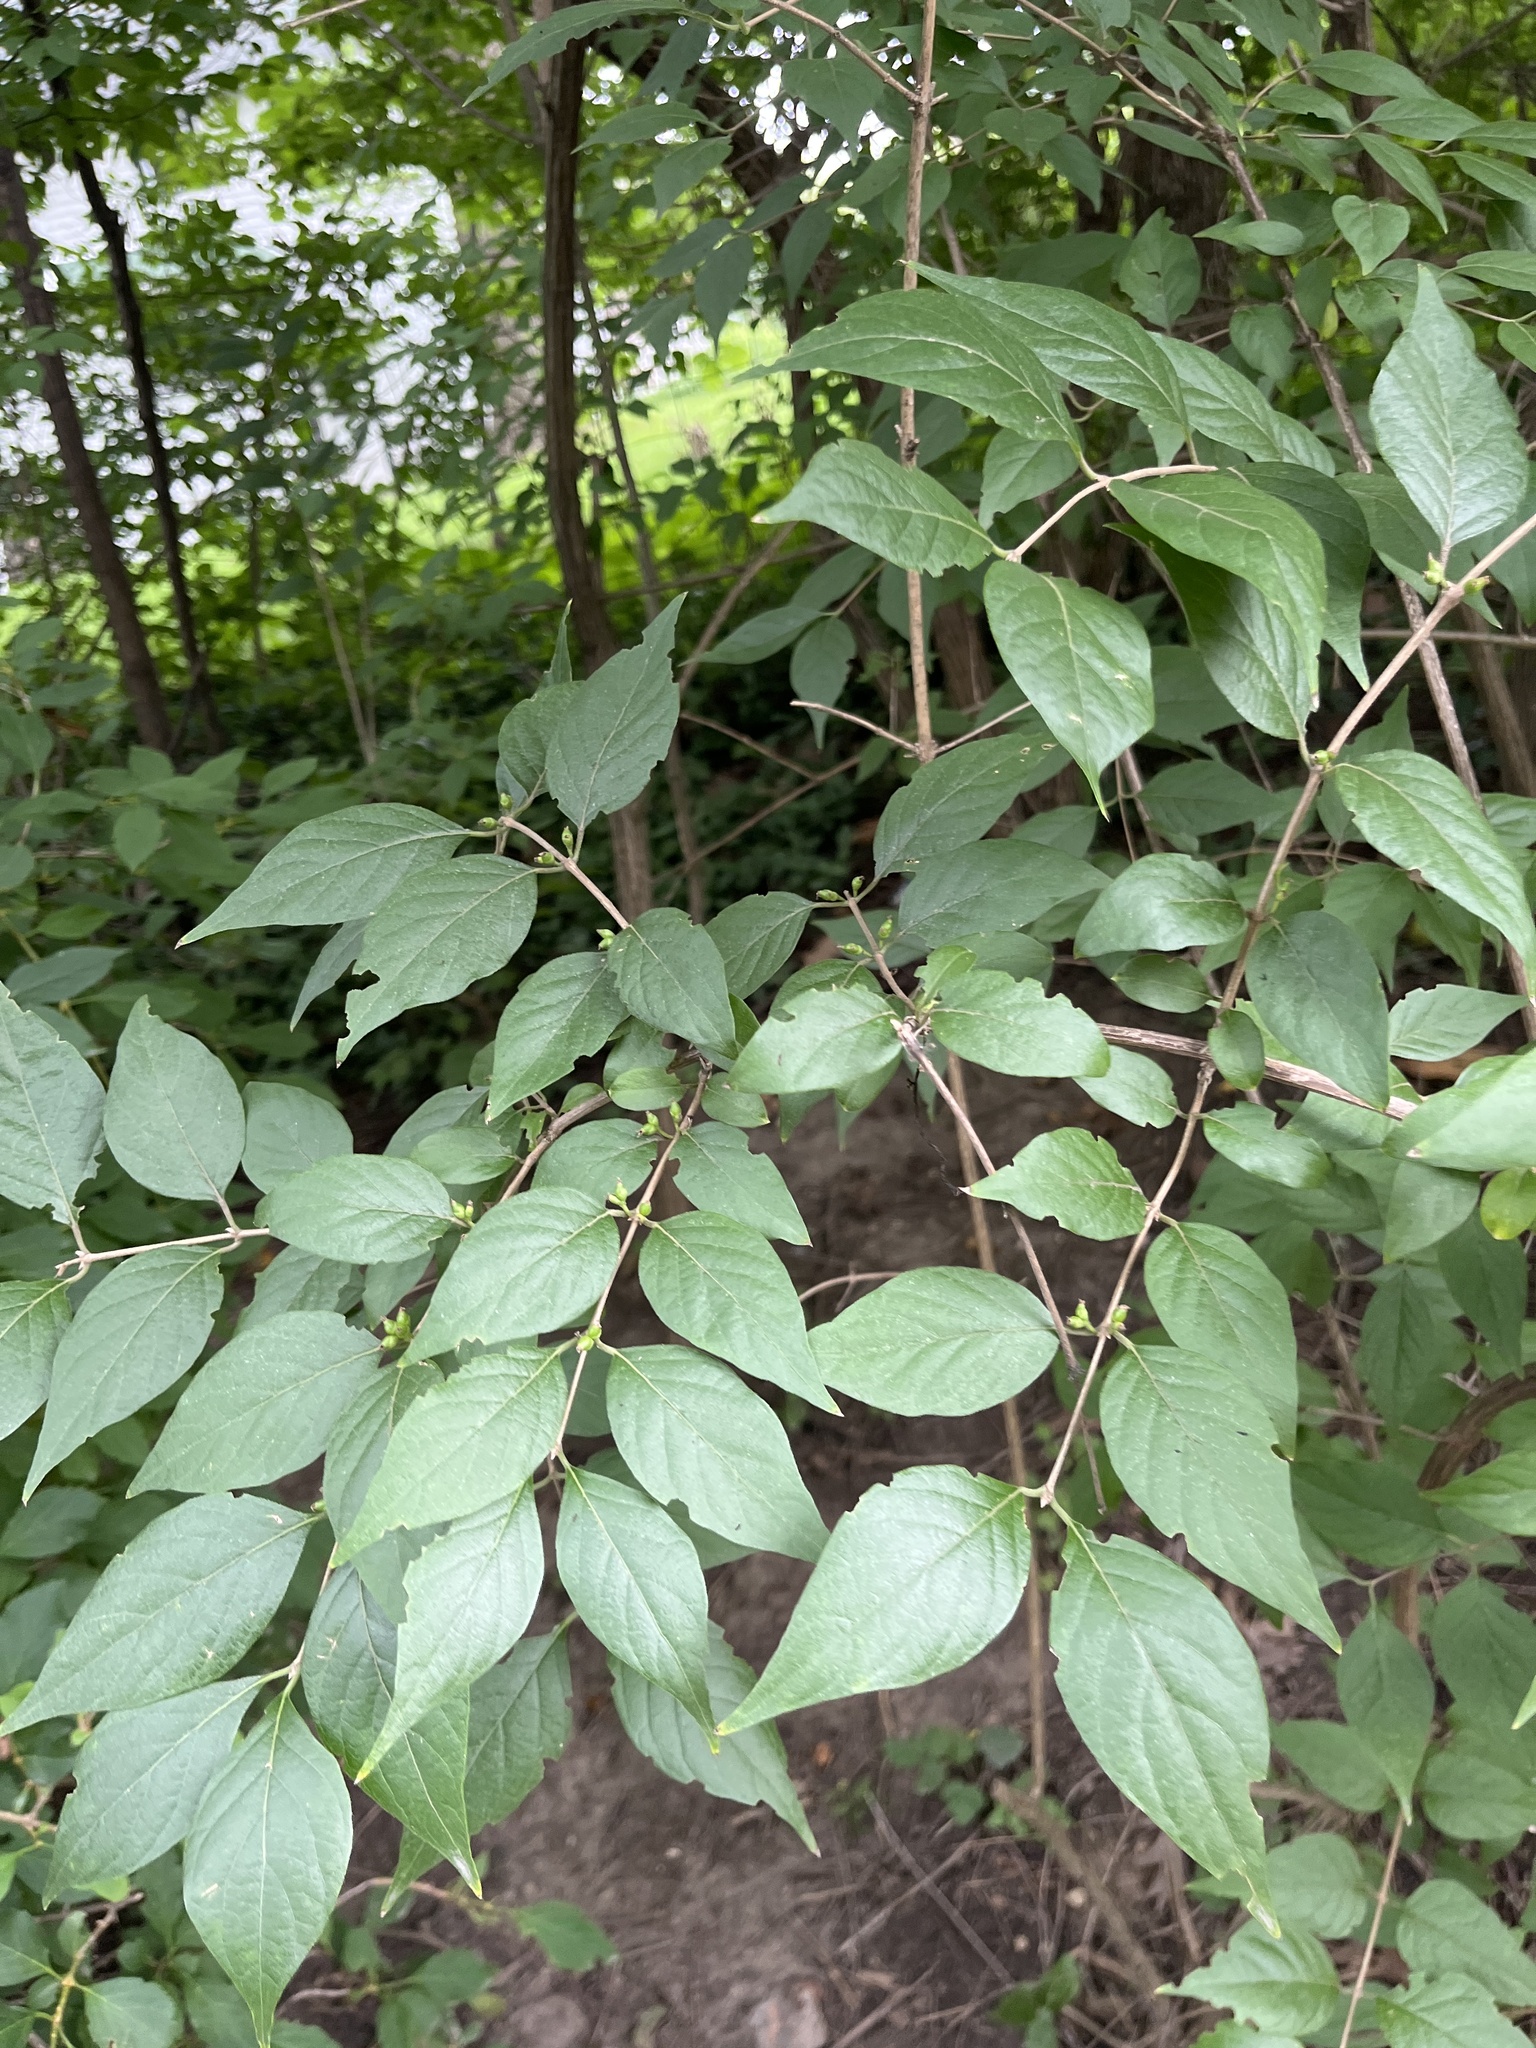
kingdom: Plantae
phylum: Tracheophyta
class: Magnoliopsida
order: Dipsacales
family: Caprifoliaceae
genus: Lonicera
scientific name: Lonicera maackii
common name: Amur honeysuckle
